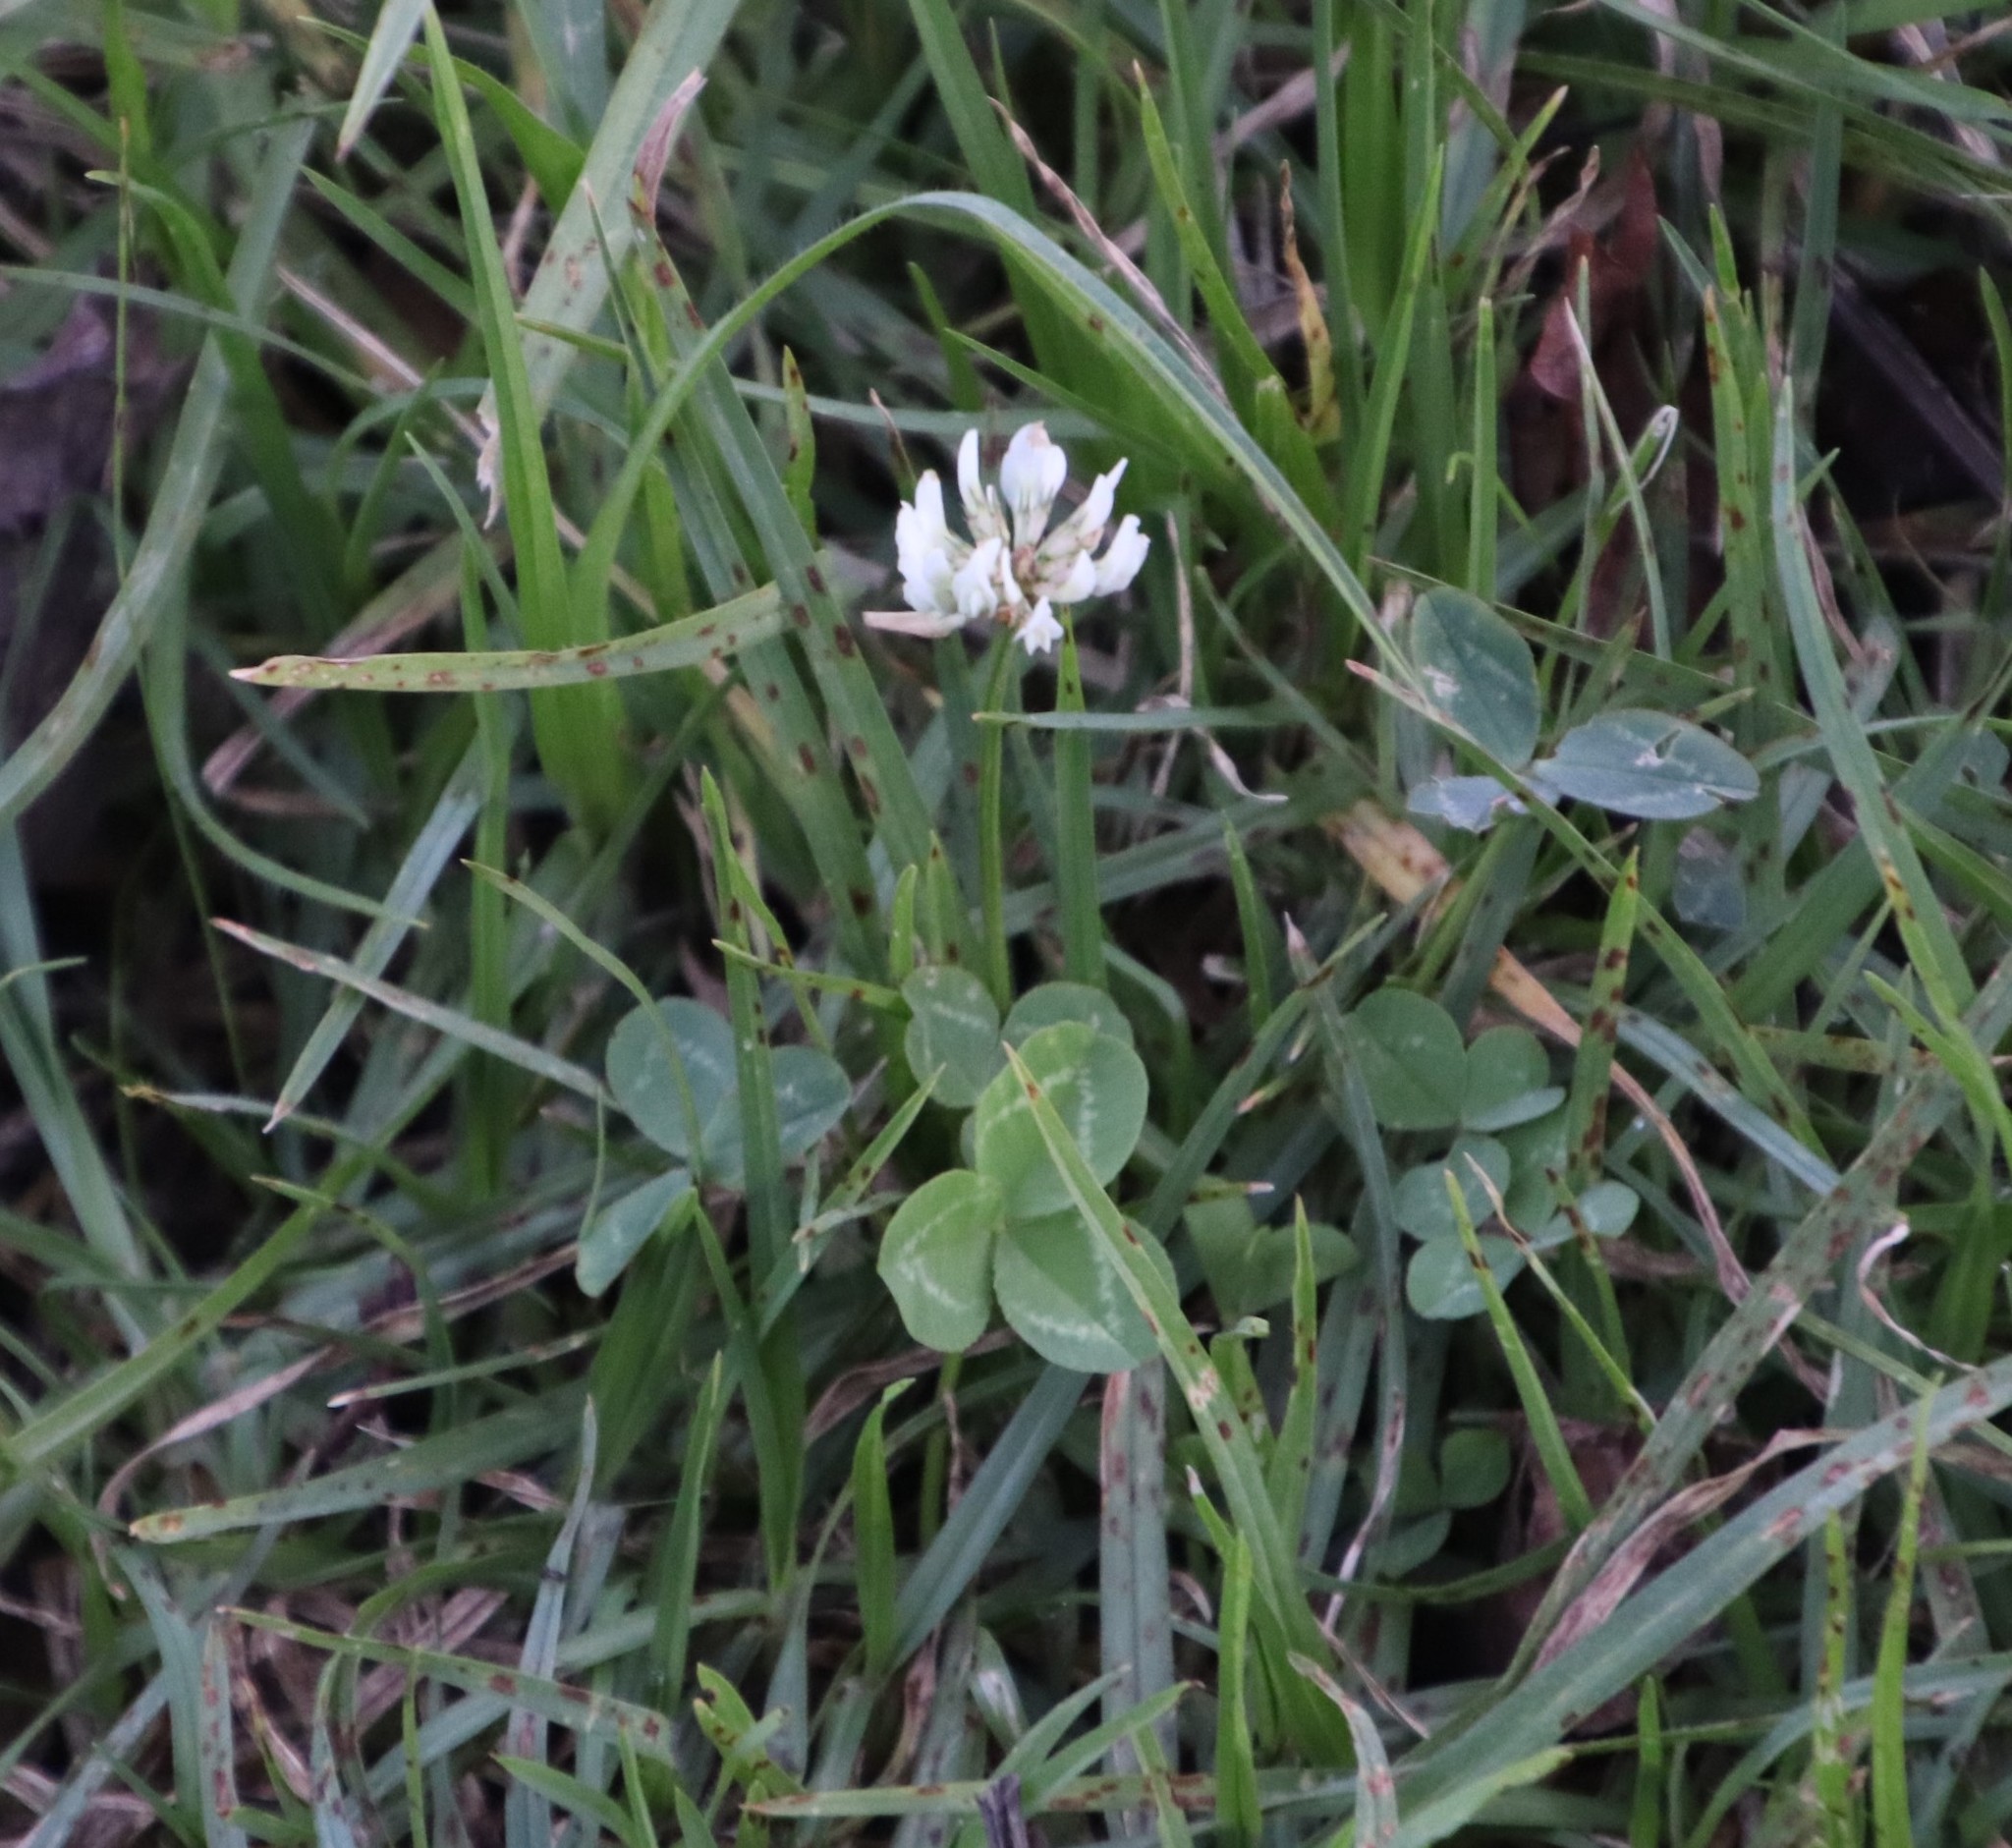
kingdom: Plantae
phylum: Tracheophyta
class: Magnoliopsida
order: Fabales
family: Fabaceae
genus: Trifolium
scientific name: Trifolium repens
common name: White clover
